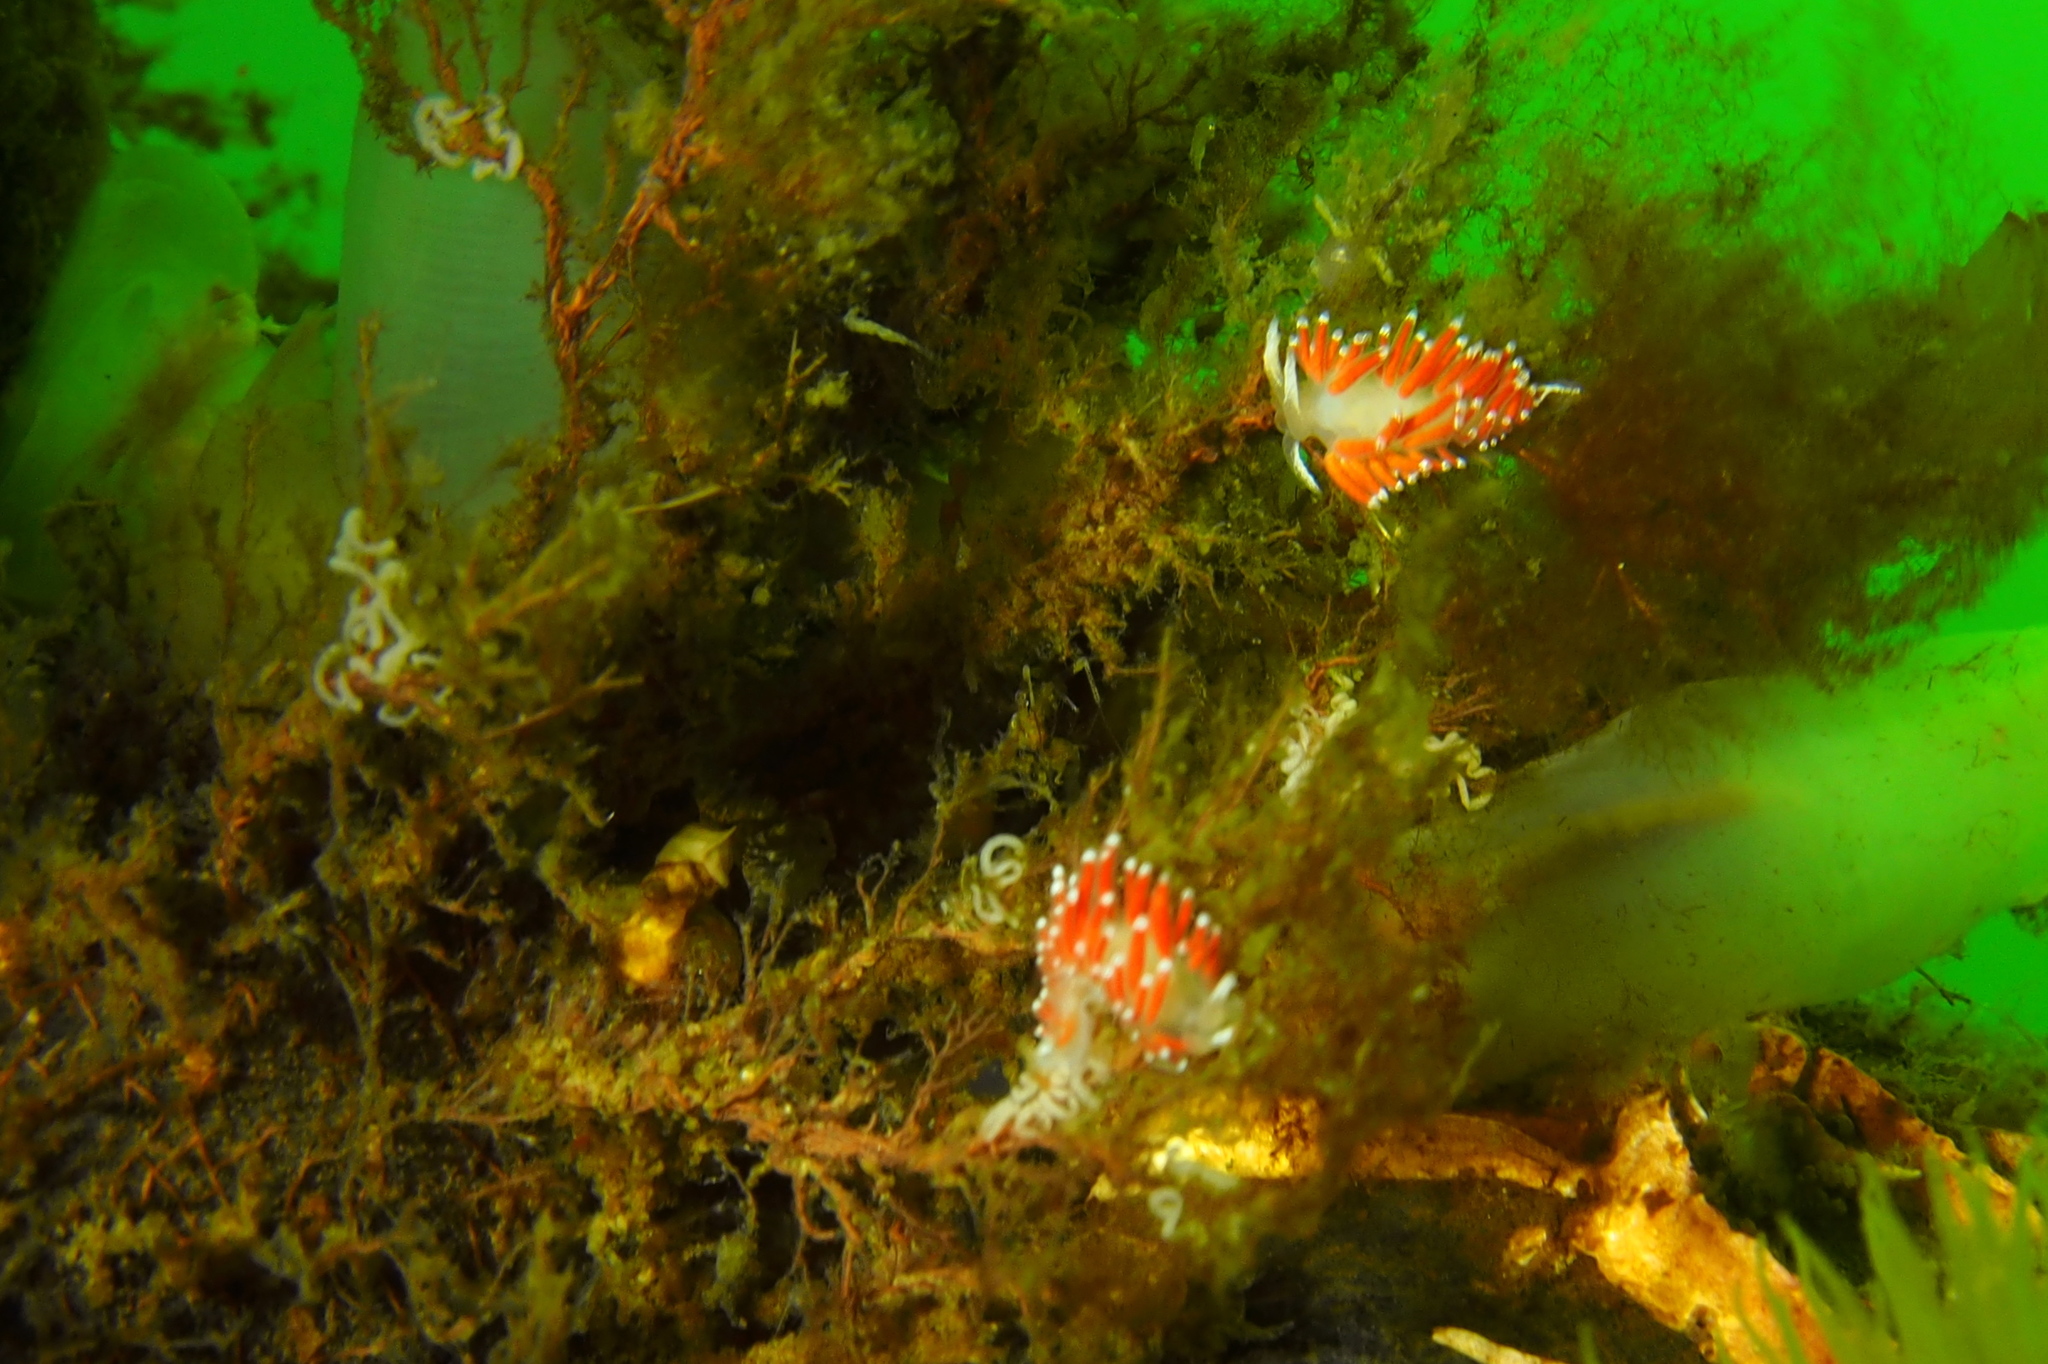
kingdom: Animalia
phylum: Mollusca
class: Gastropoda
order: Nudibranchia
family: Coryphellidae
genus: Coryphella
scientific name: Coryphella gracilis
